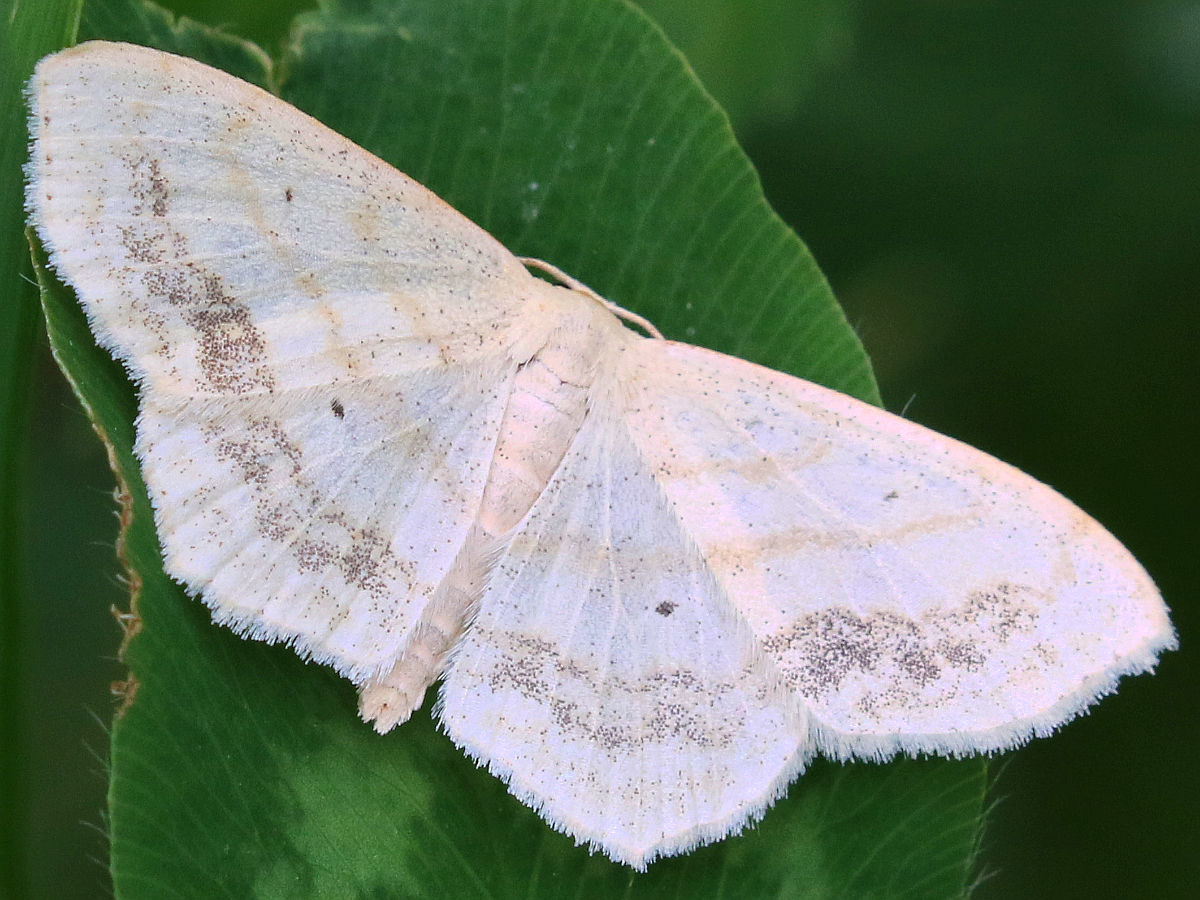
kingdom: Animalia
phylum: Arthropoda
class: Insecta
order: Lepidoptera
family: Geometridae
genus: Scopula
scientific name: Scopula limboundata
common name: Large lace border
